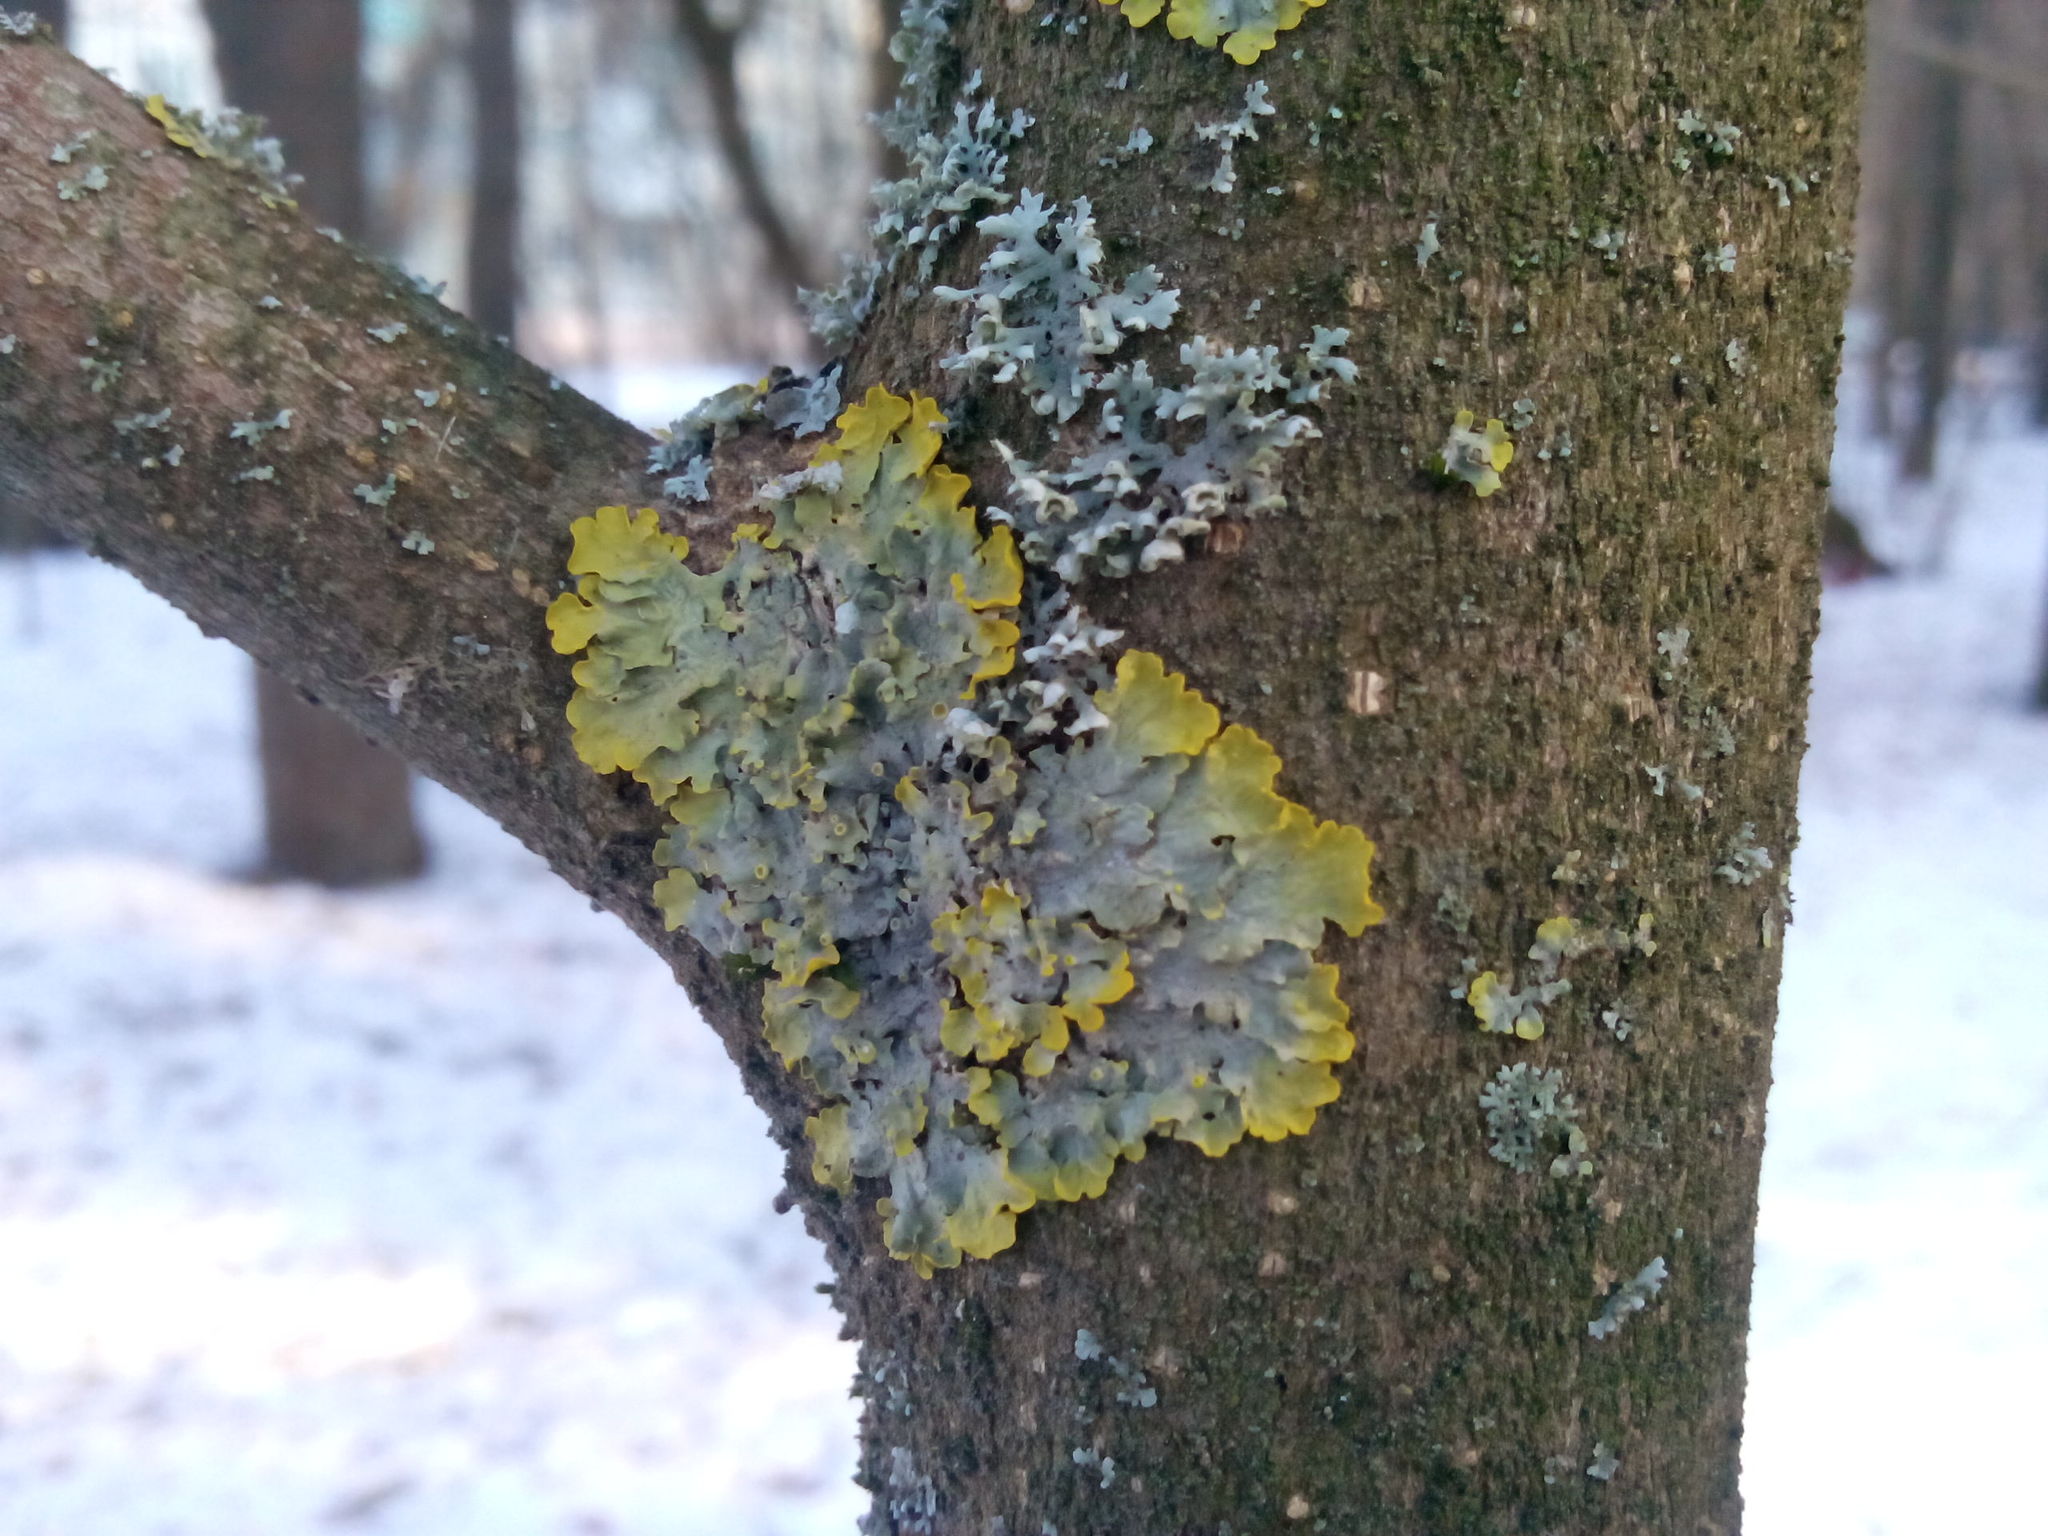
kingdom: Fungi
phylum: Ascomycota
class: Lecanoromycetes
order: Teloschistales
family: Teloschistaceae
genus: Xanthoria
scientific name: Xanthoria parietina
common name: Common orange lichen
